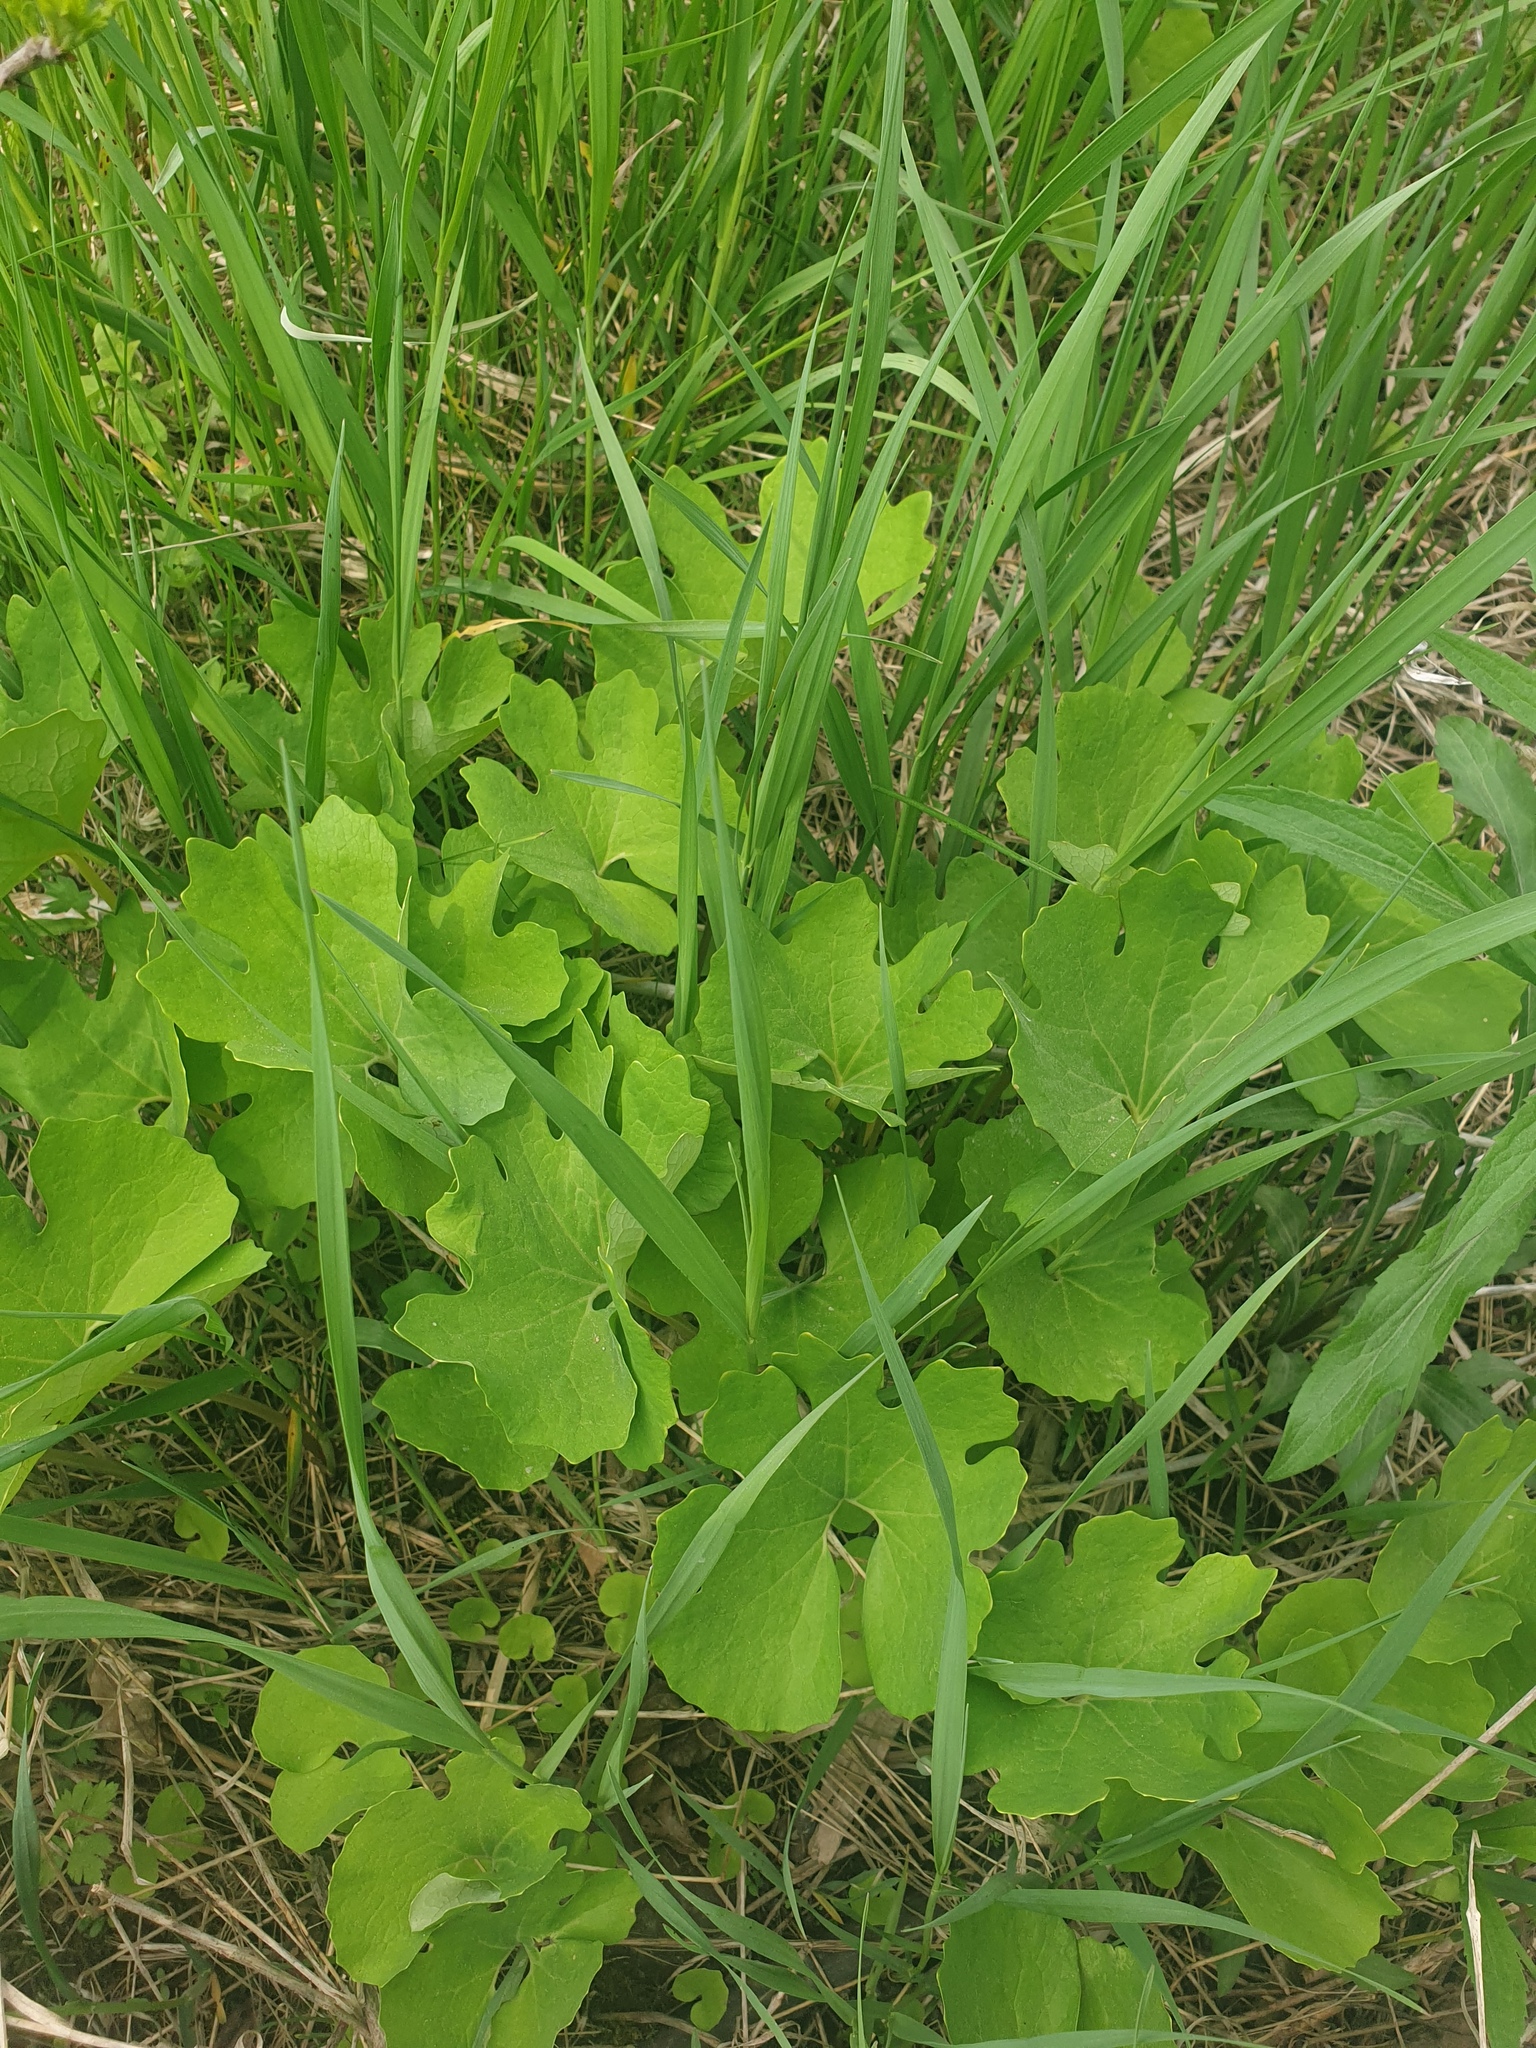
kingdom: Plantae
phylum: Tracheophyta
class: Magnoliopsida
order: Ranunculales
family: Papaveraceae
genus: Sanguinaria
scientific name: Sanguinaria canadensis
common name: Bloodroot
